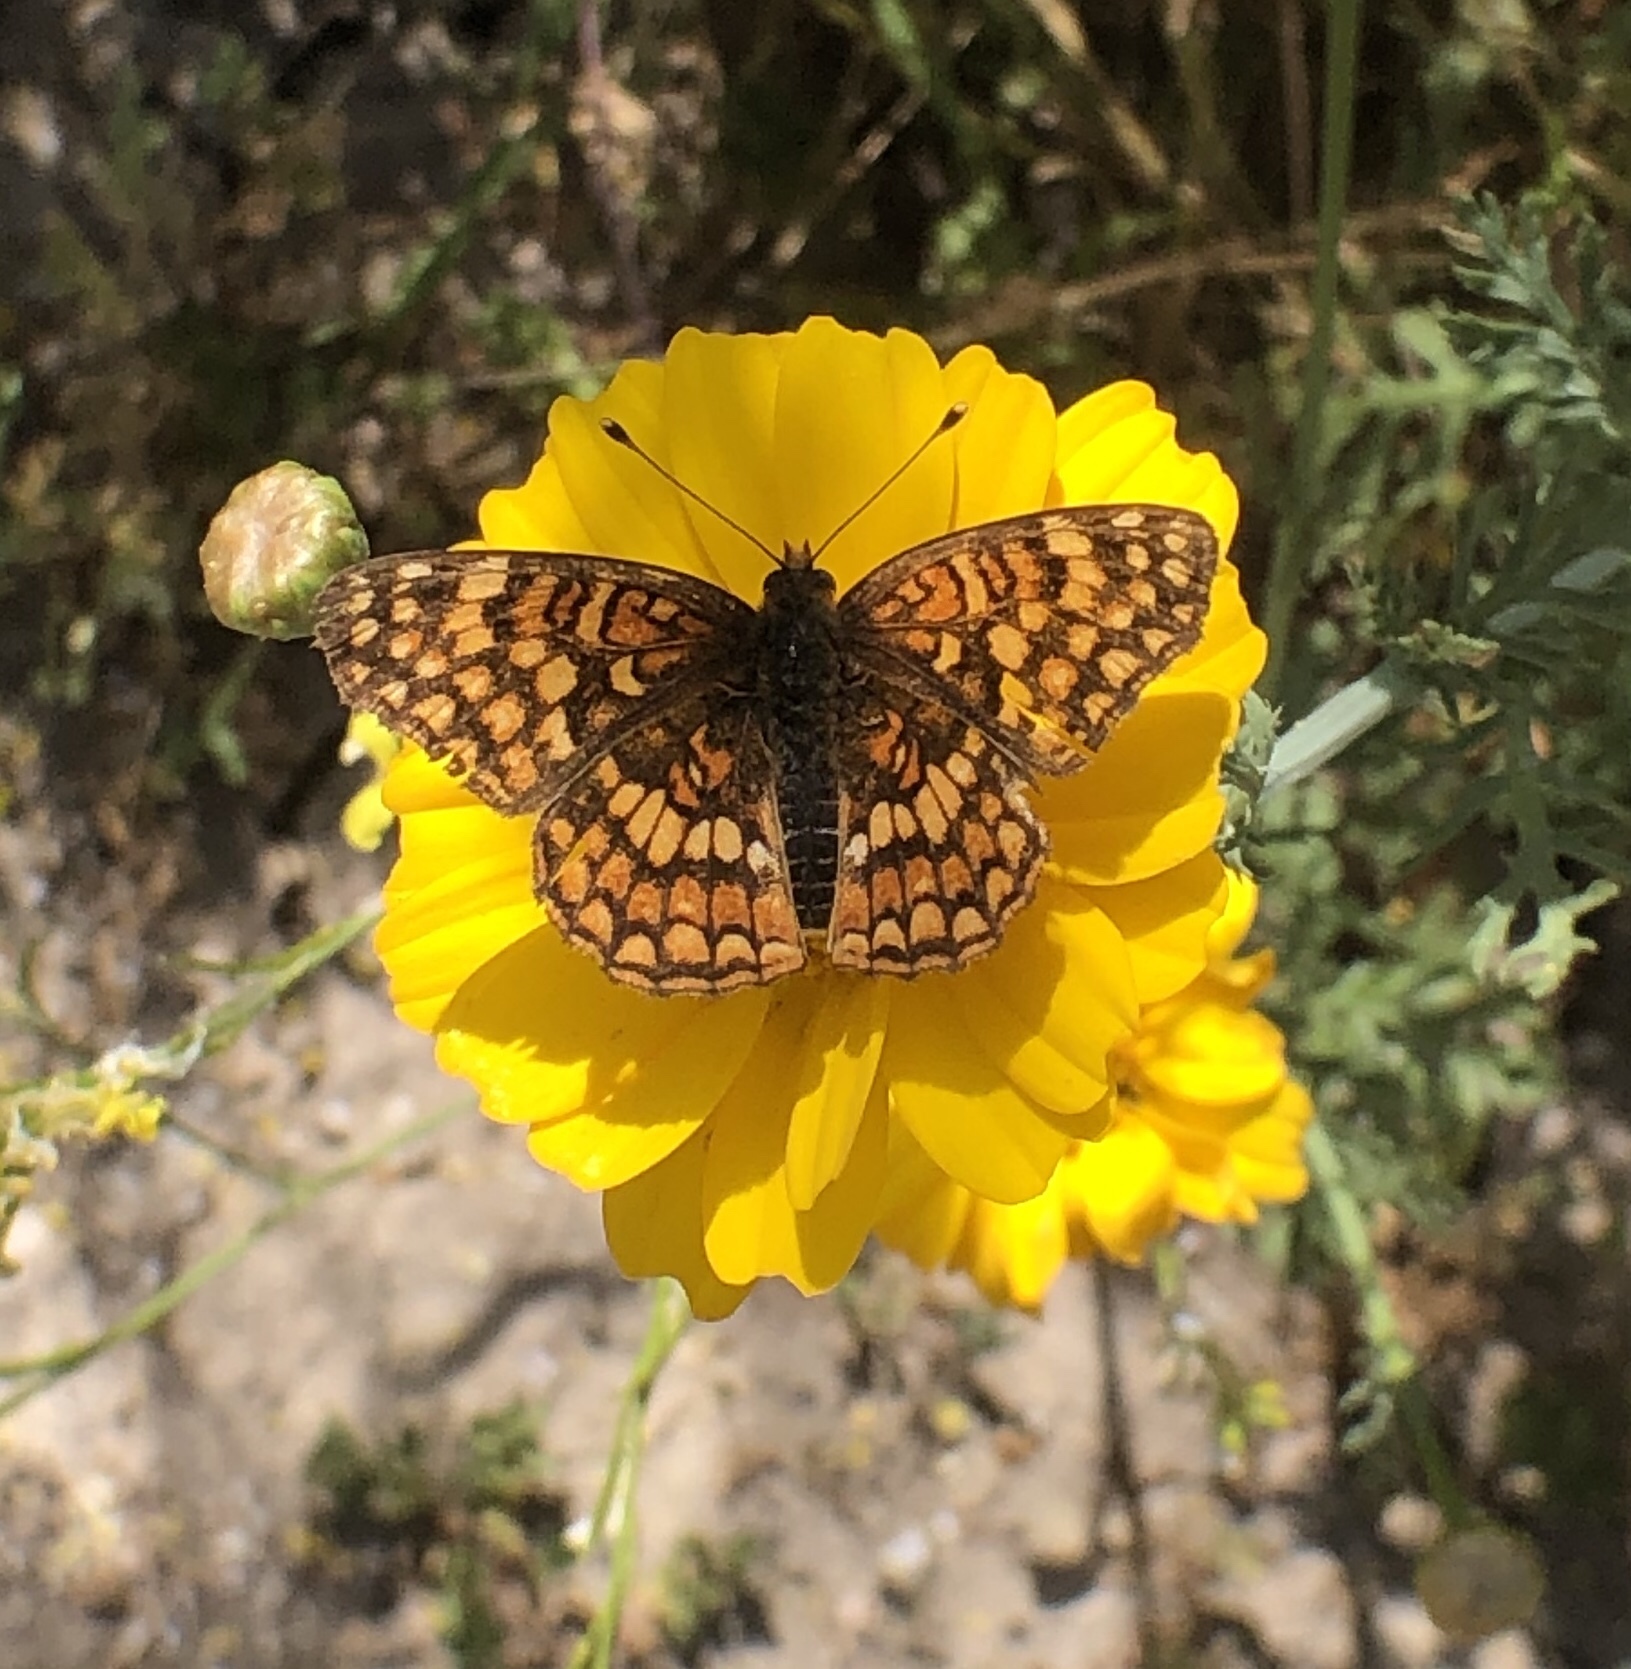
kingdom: Animalia
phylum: Arthropoda
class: Insecta
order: Lepidoptera
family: Nymphalidae
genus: Chlosyne
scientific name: Chlosyne gabbii
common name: Gabb's checkerspot
